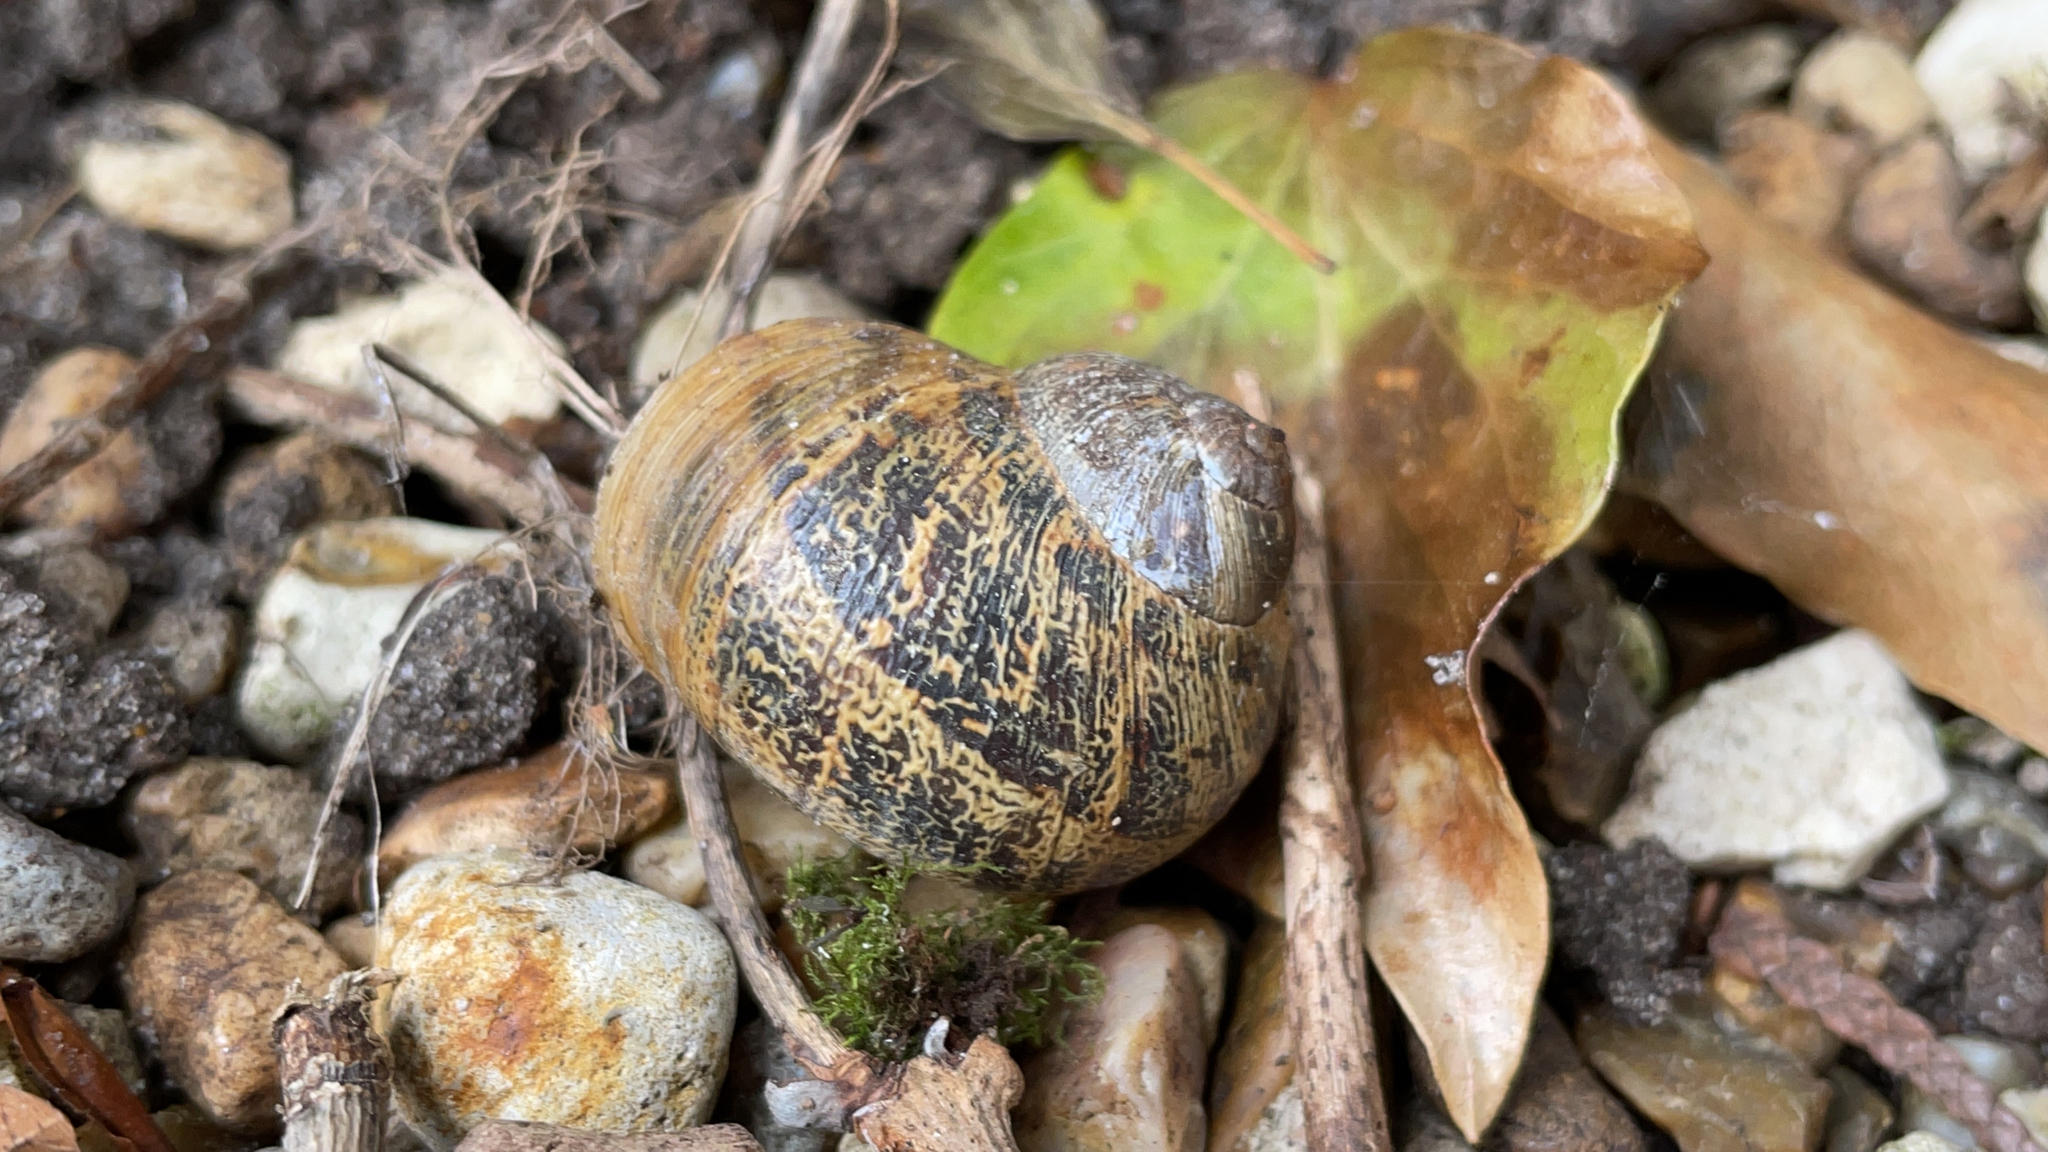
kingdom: Animalia
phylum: Mollusca
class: Gastropoda
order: Stylommatophora
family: Helicidae
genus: Cornu
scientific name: Cornu aspersum
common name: Brown garden snail
